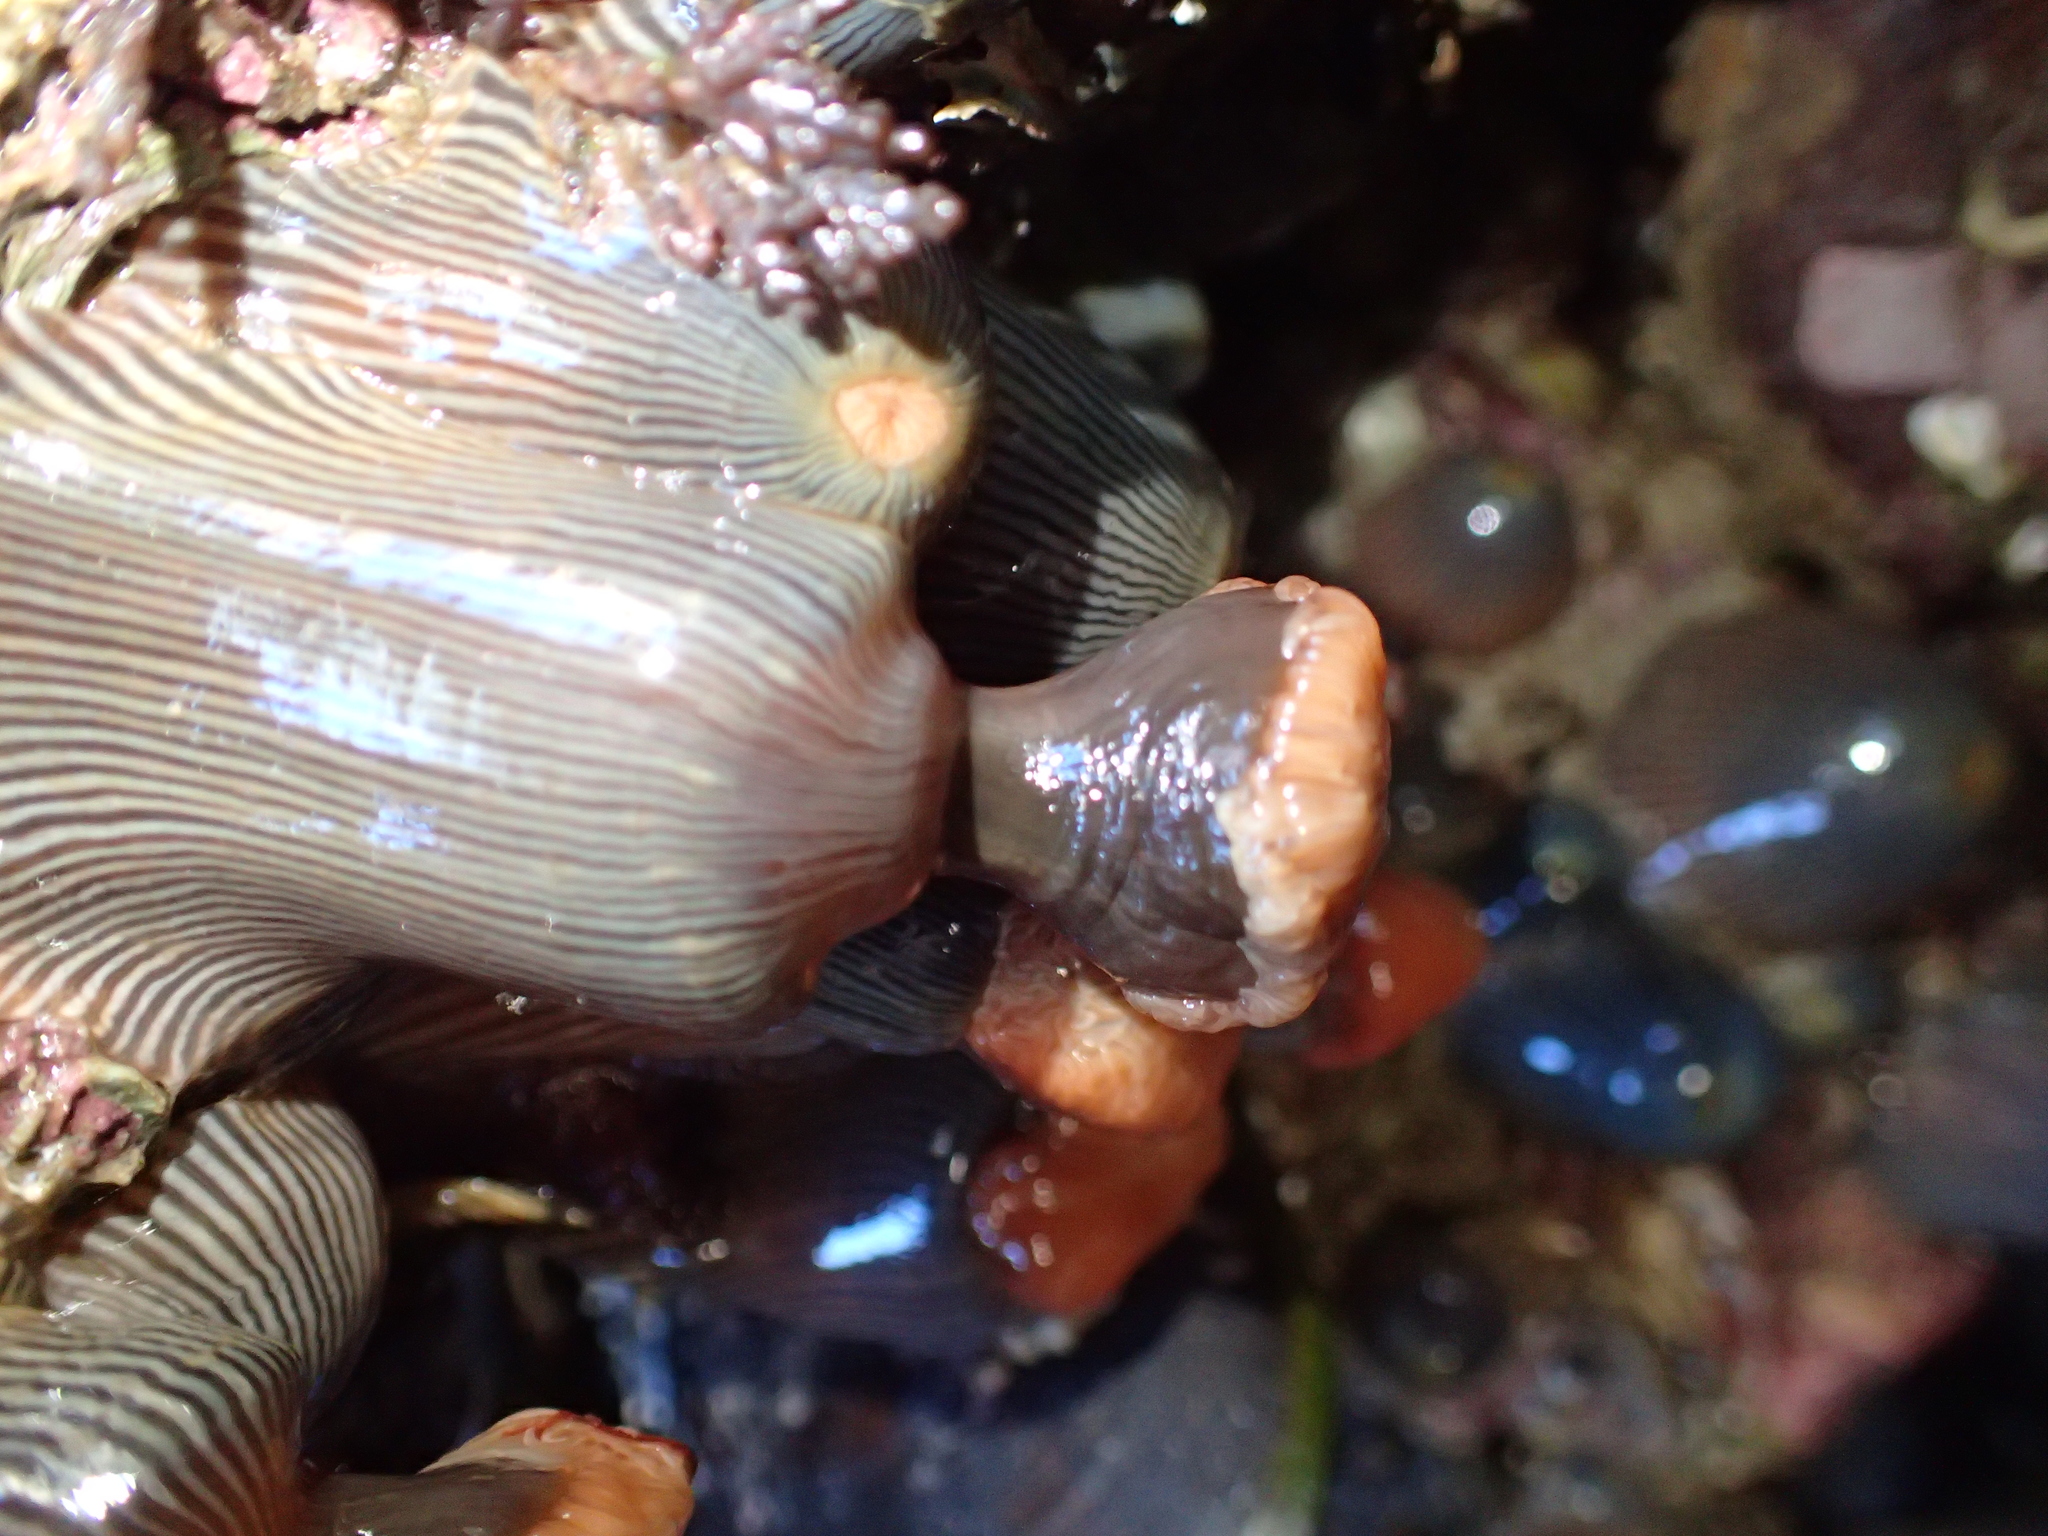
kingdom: Animalia
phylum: Cnidaria
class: Anthozoa
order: Actiniaria
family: Diadumenidae
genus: Diadumene
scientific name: Diadumene neozelanica
